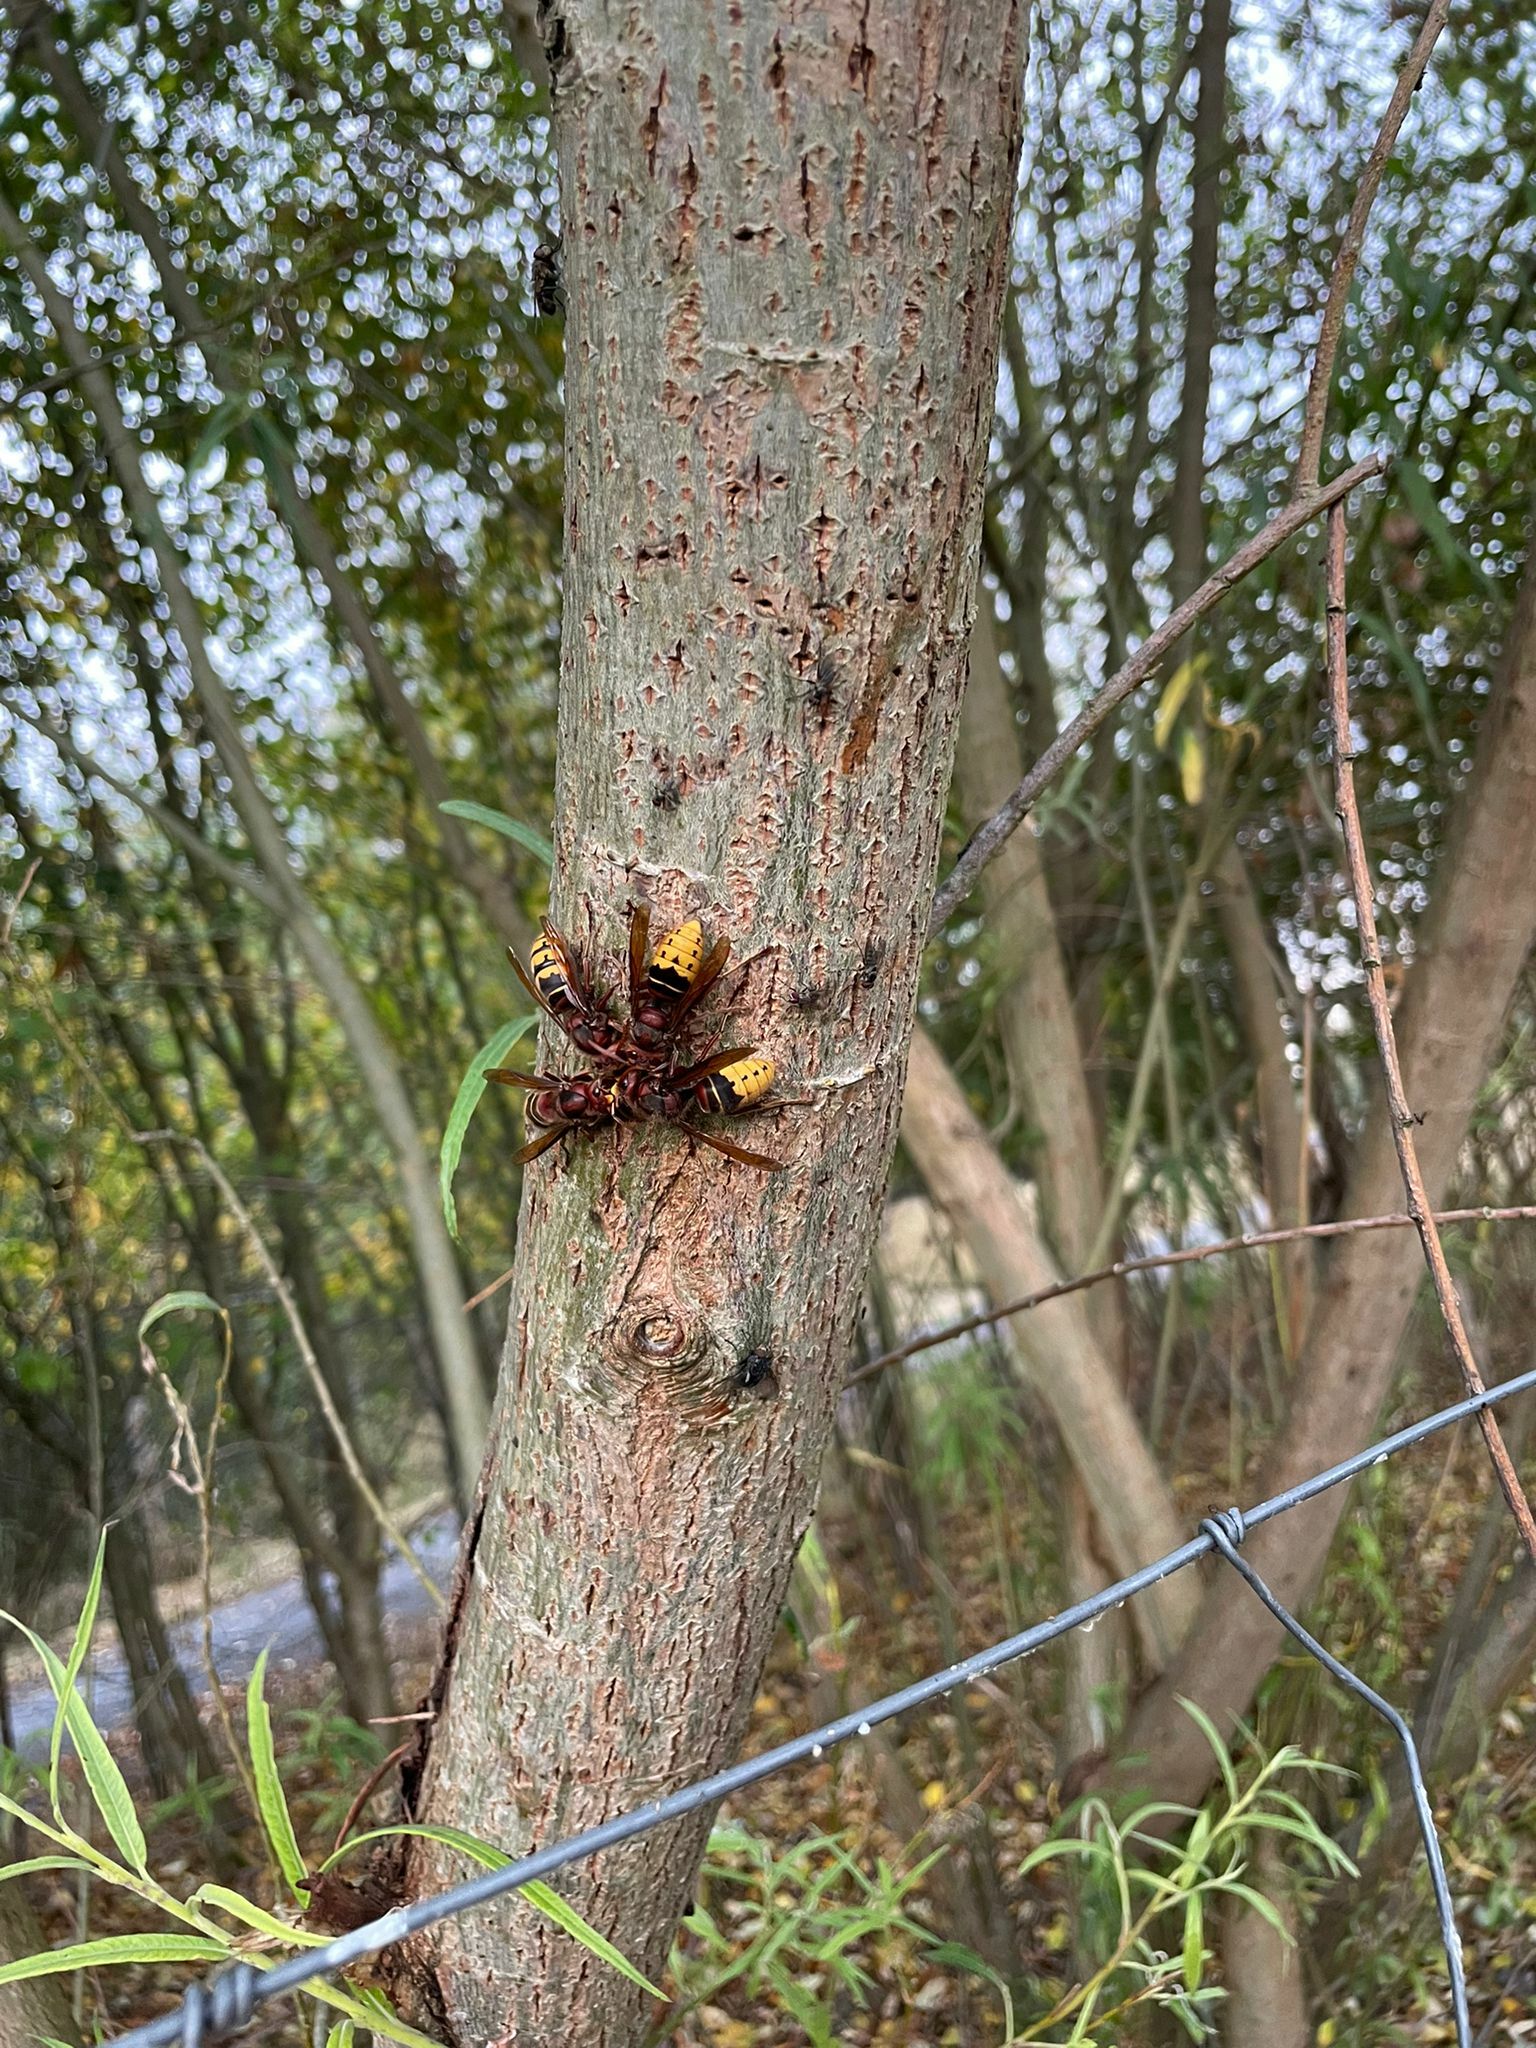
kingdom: Animalia
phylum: Arthropoda
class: Insecta
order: Hymenoptera
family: Vespidae
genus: Vespa
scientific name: Vespa crabro
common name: Hornet
